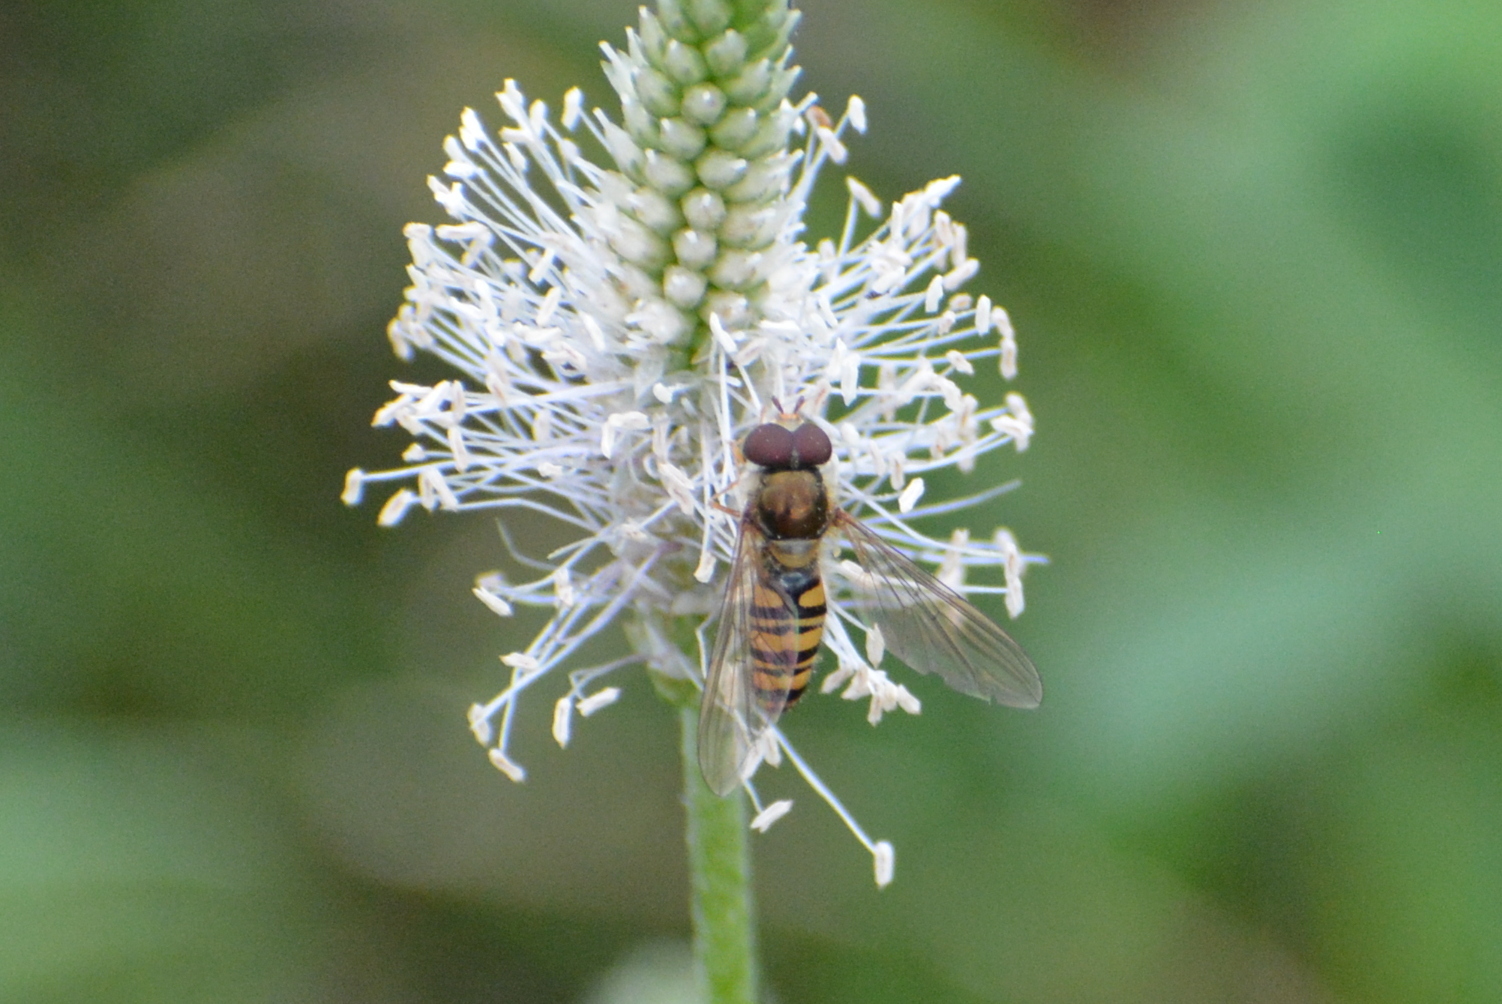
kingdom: Animalia
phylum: Arthropoda
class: Insecta
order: Diptera
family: Syrphidae
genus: Episyrphus
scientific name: Episyrphus balteatus
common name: Marmalade hoverfly
